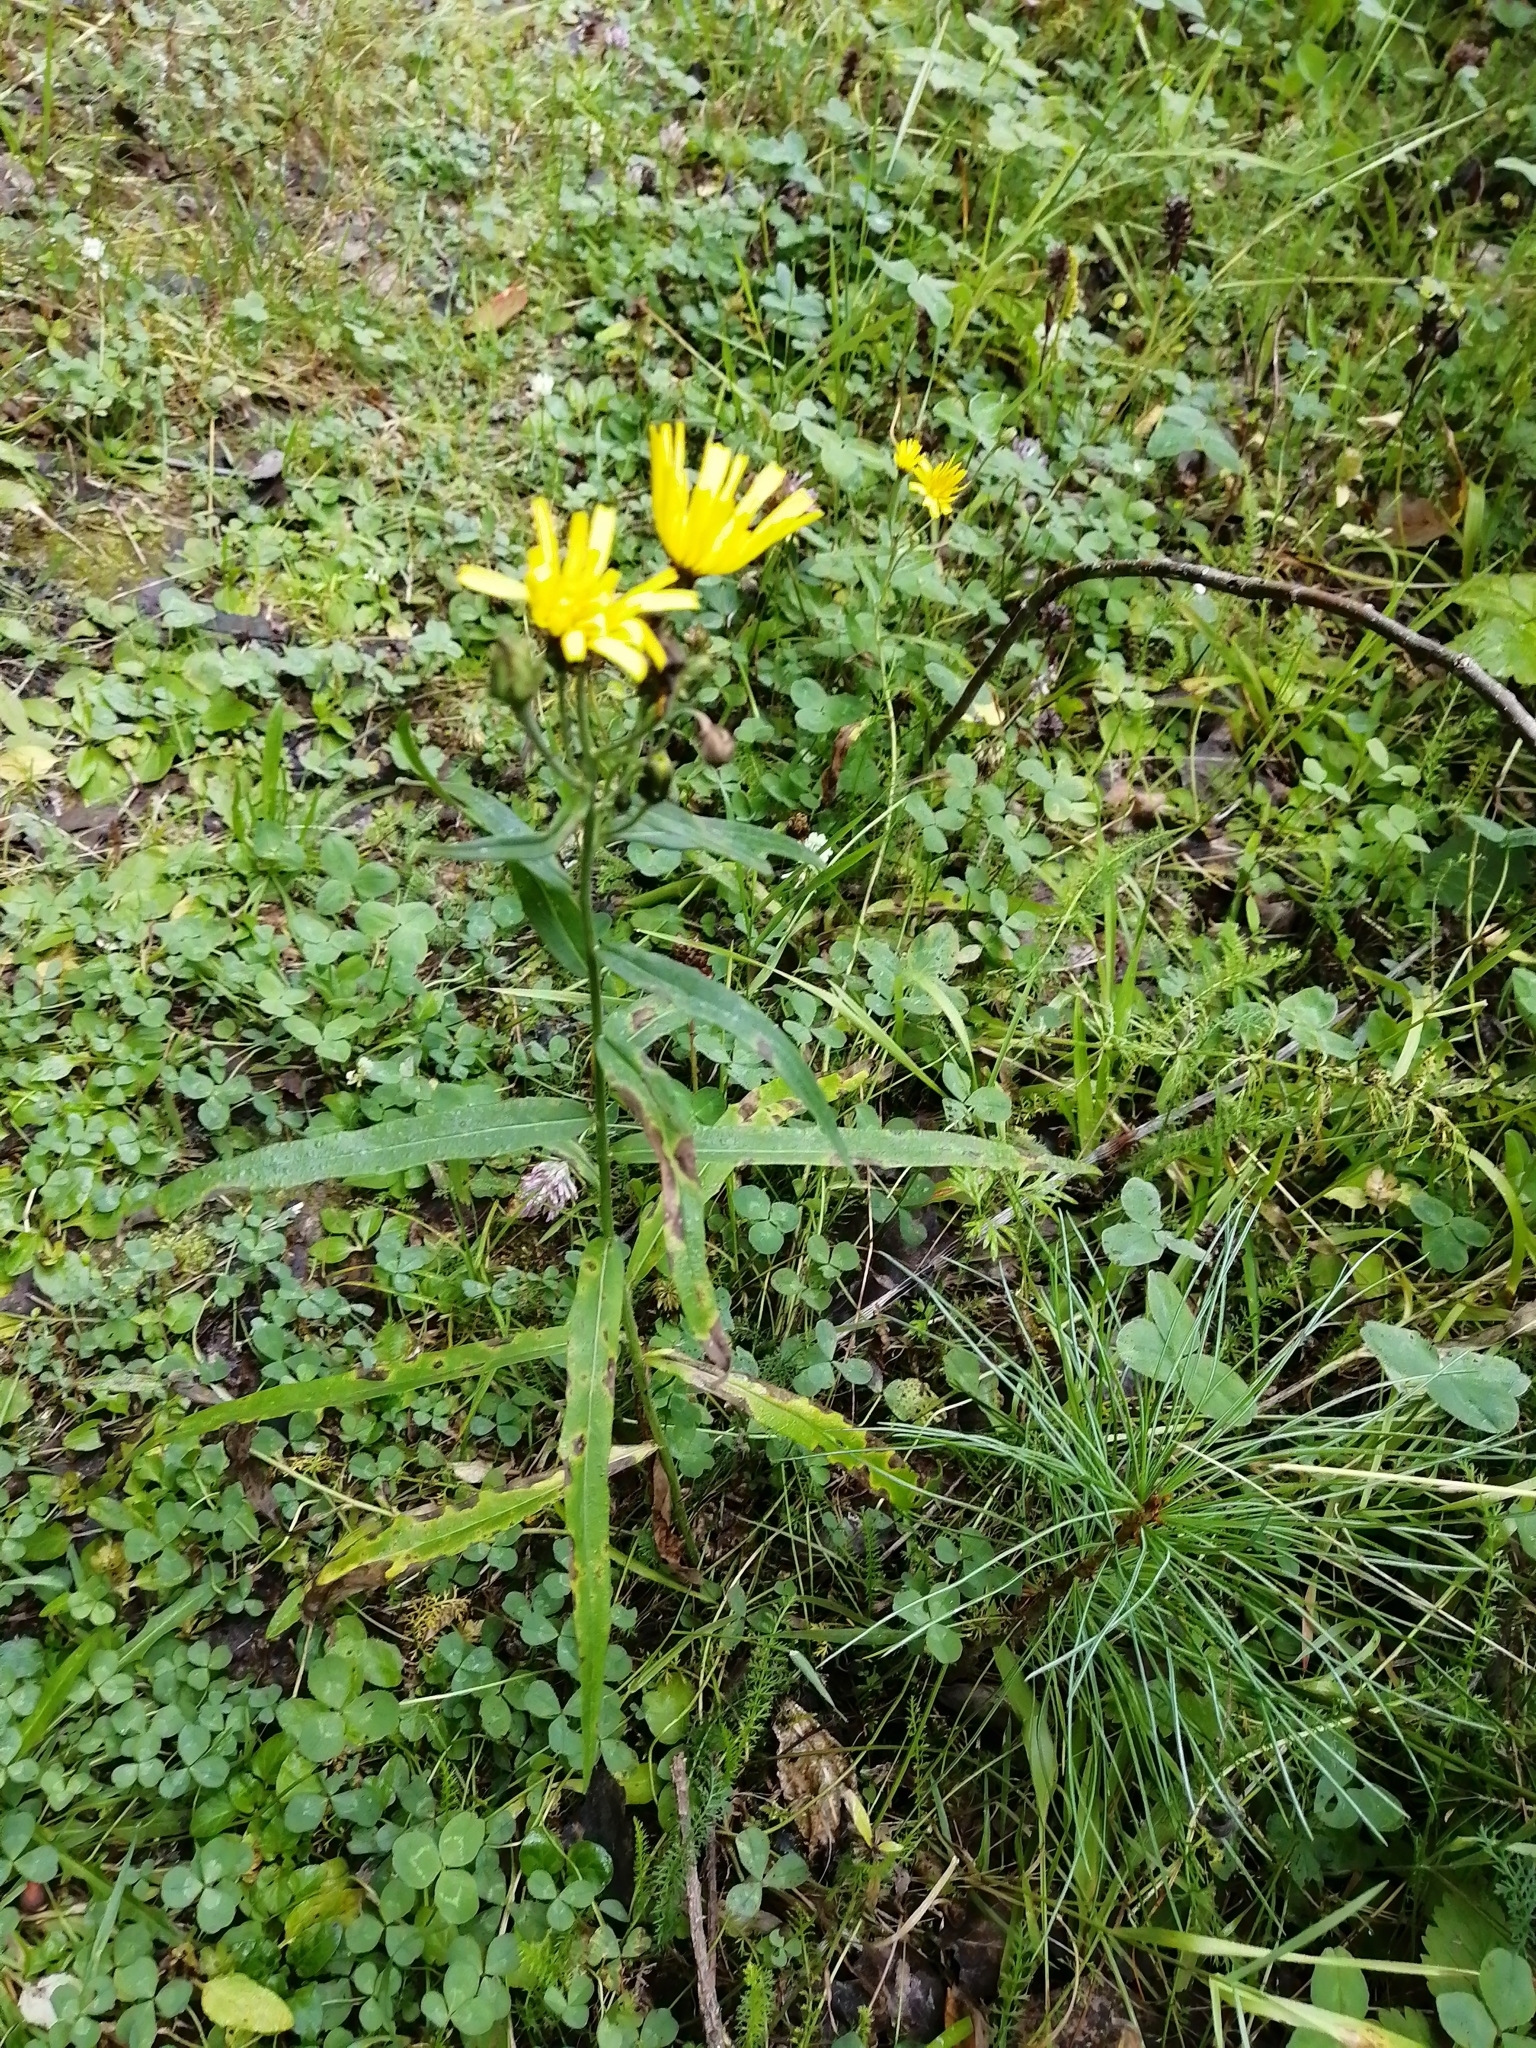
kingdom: Plantae
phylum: Tracheophyta
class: Magnoliopsida
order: Asterales
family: Asteraceae
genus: Hieracium
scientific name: Hieracium umbellatum
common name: Northern hawkweed
